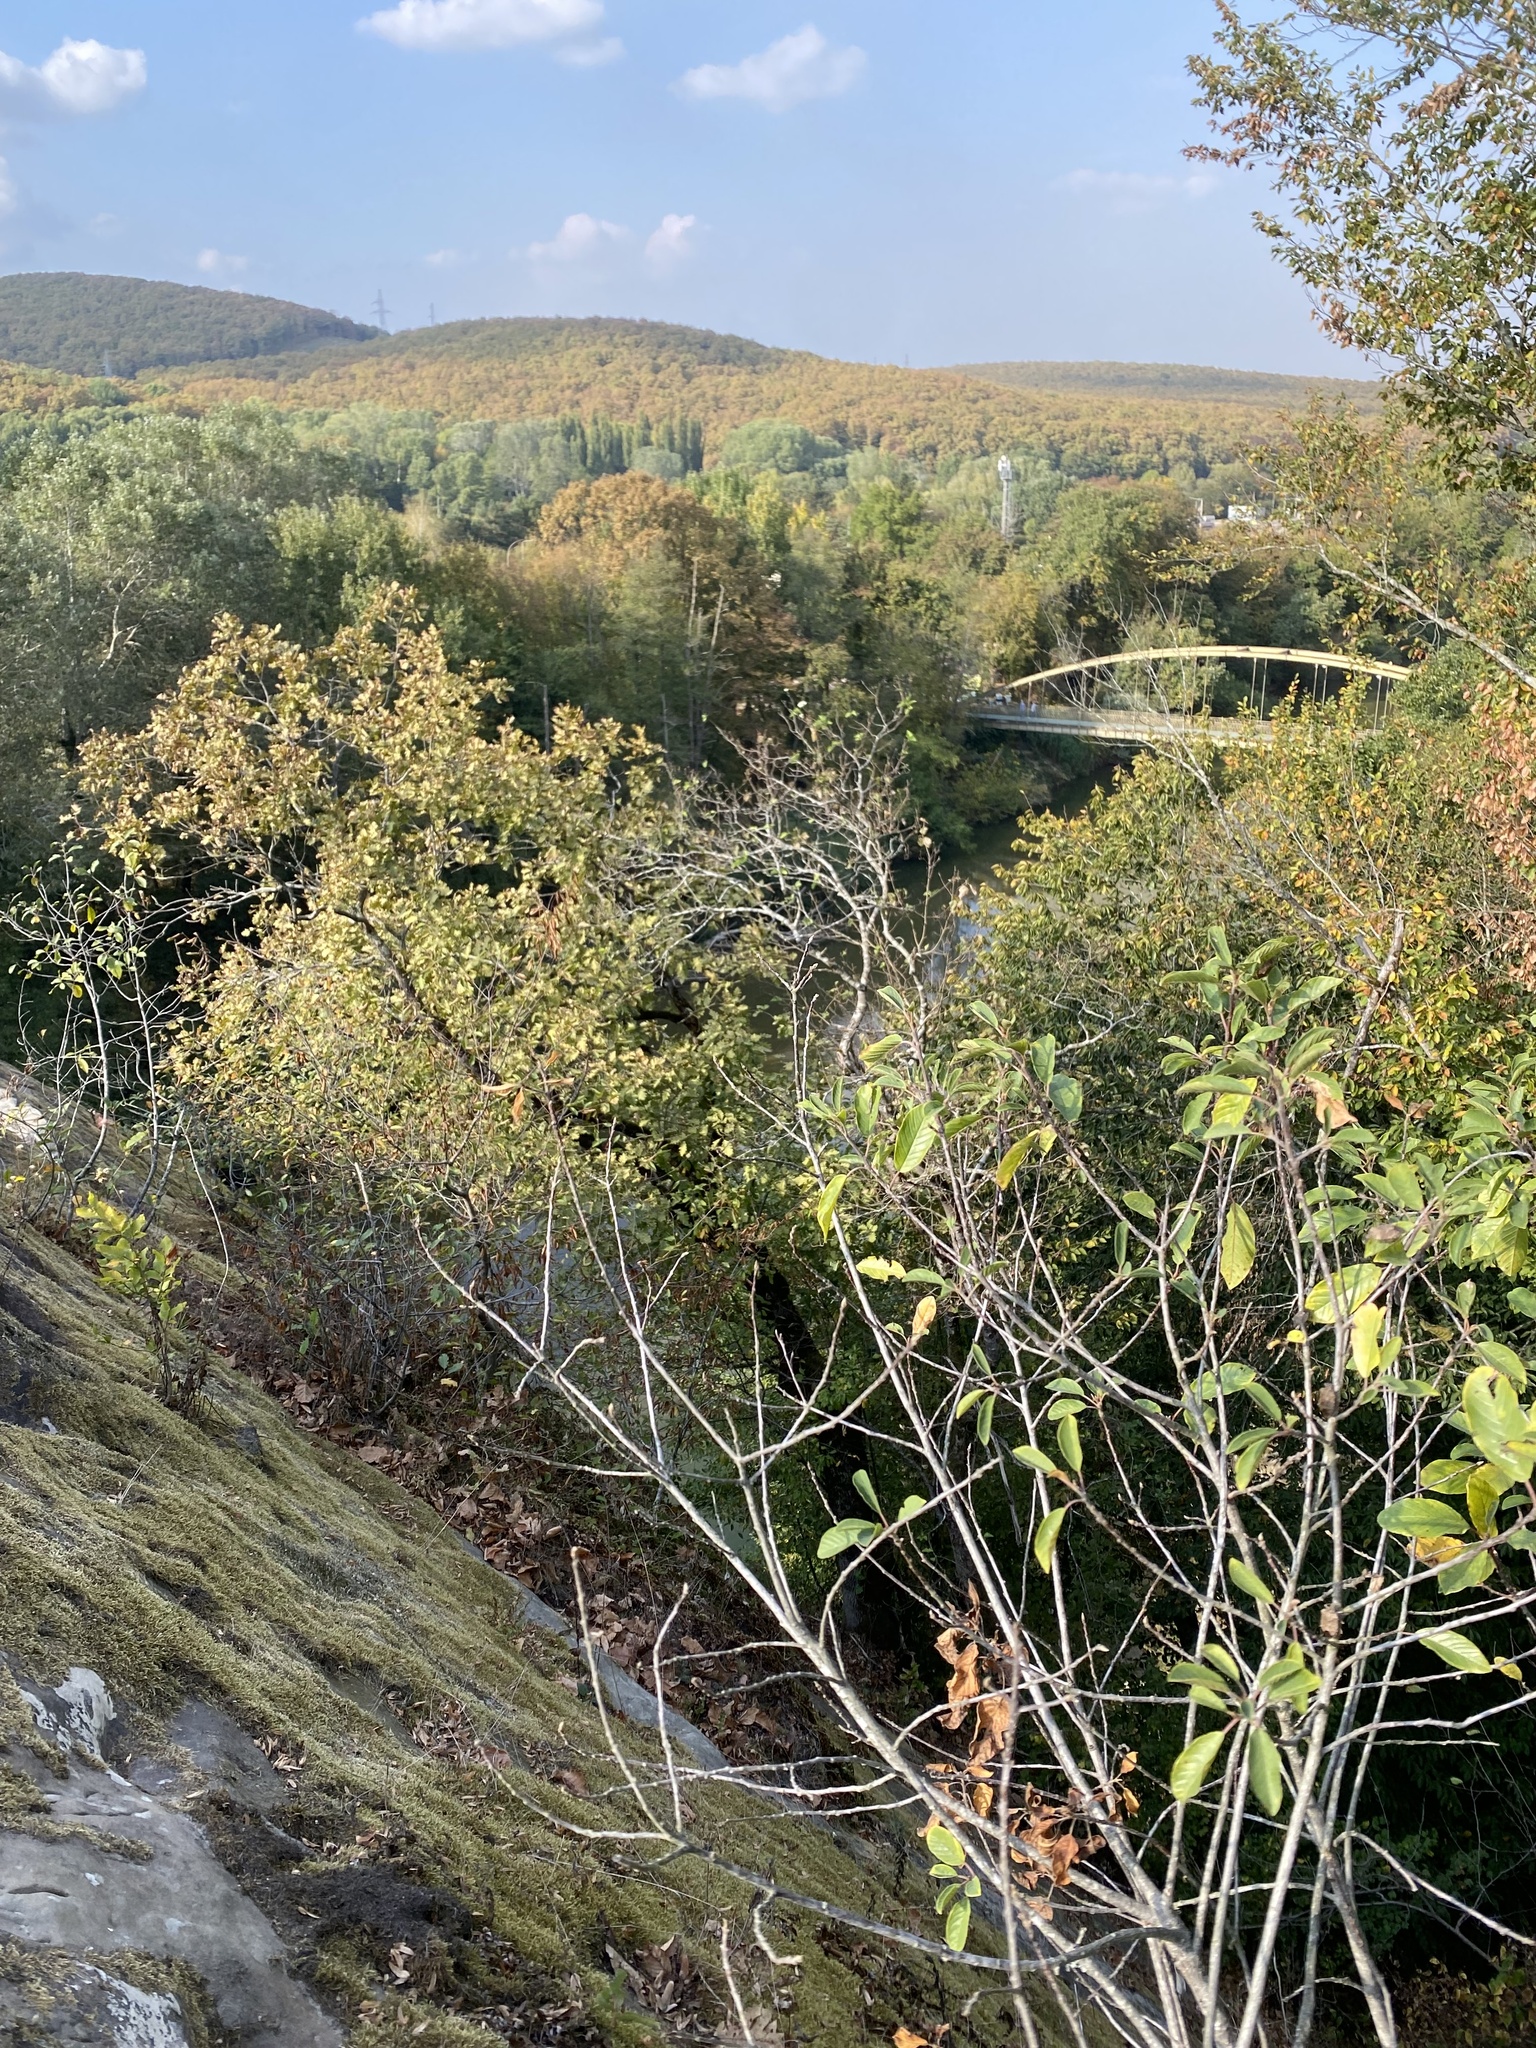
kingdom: Plantae
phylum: Tracheophyta
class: Magnoliopsida
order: Rosales
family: Rhamnaceae
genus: Frangula
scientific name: Frangula alnus
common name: Alder buckthorn
